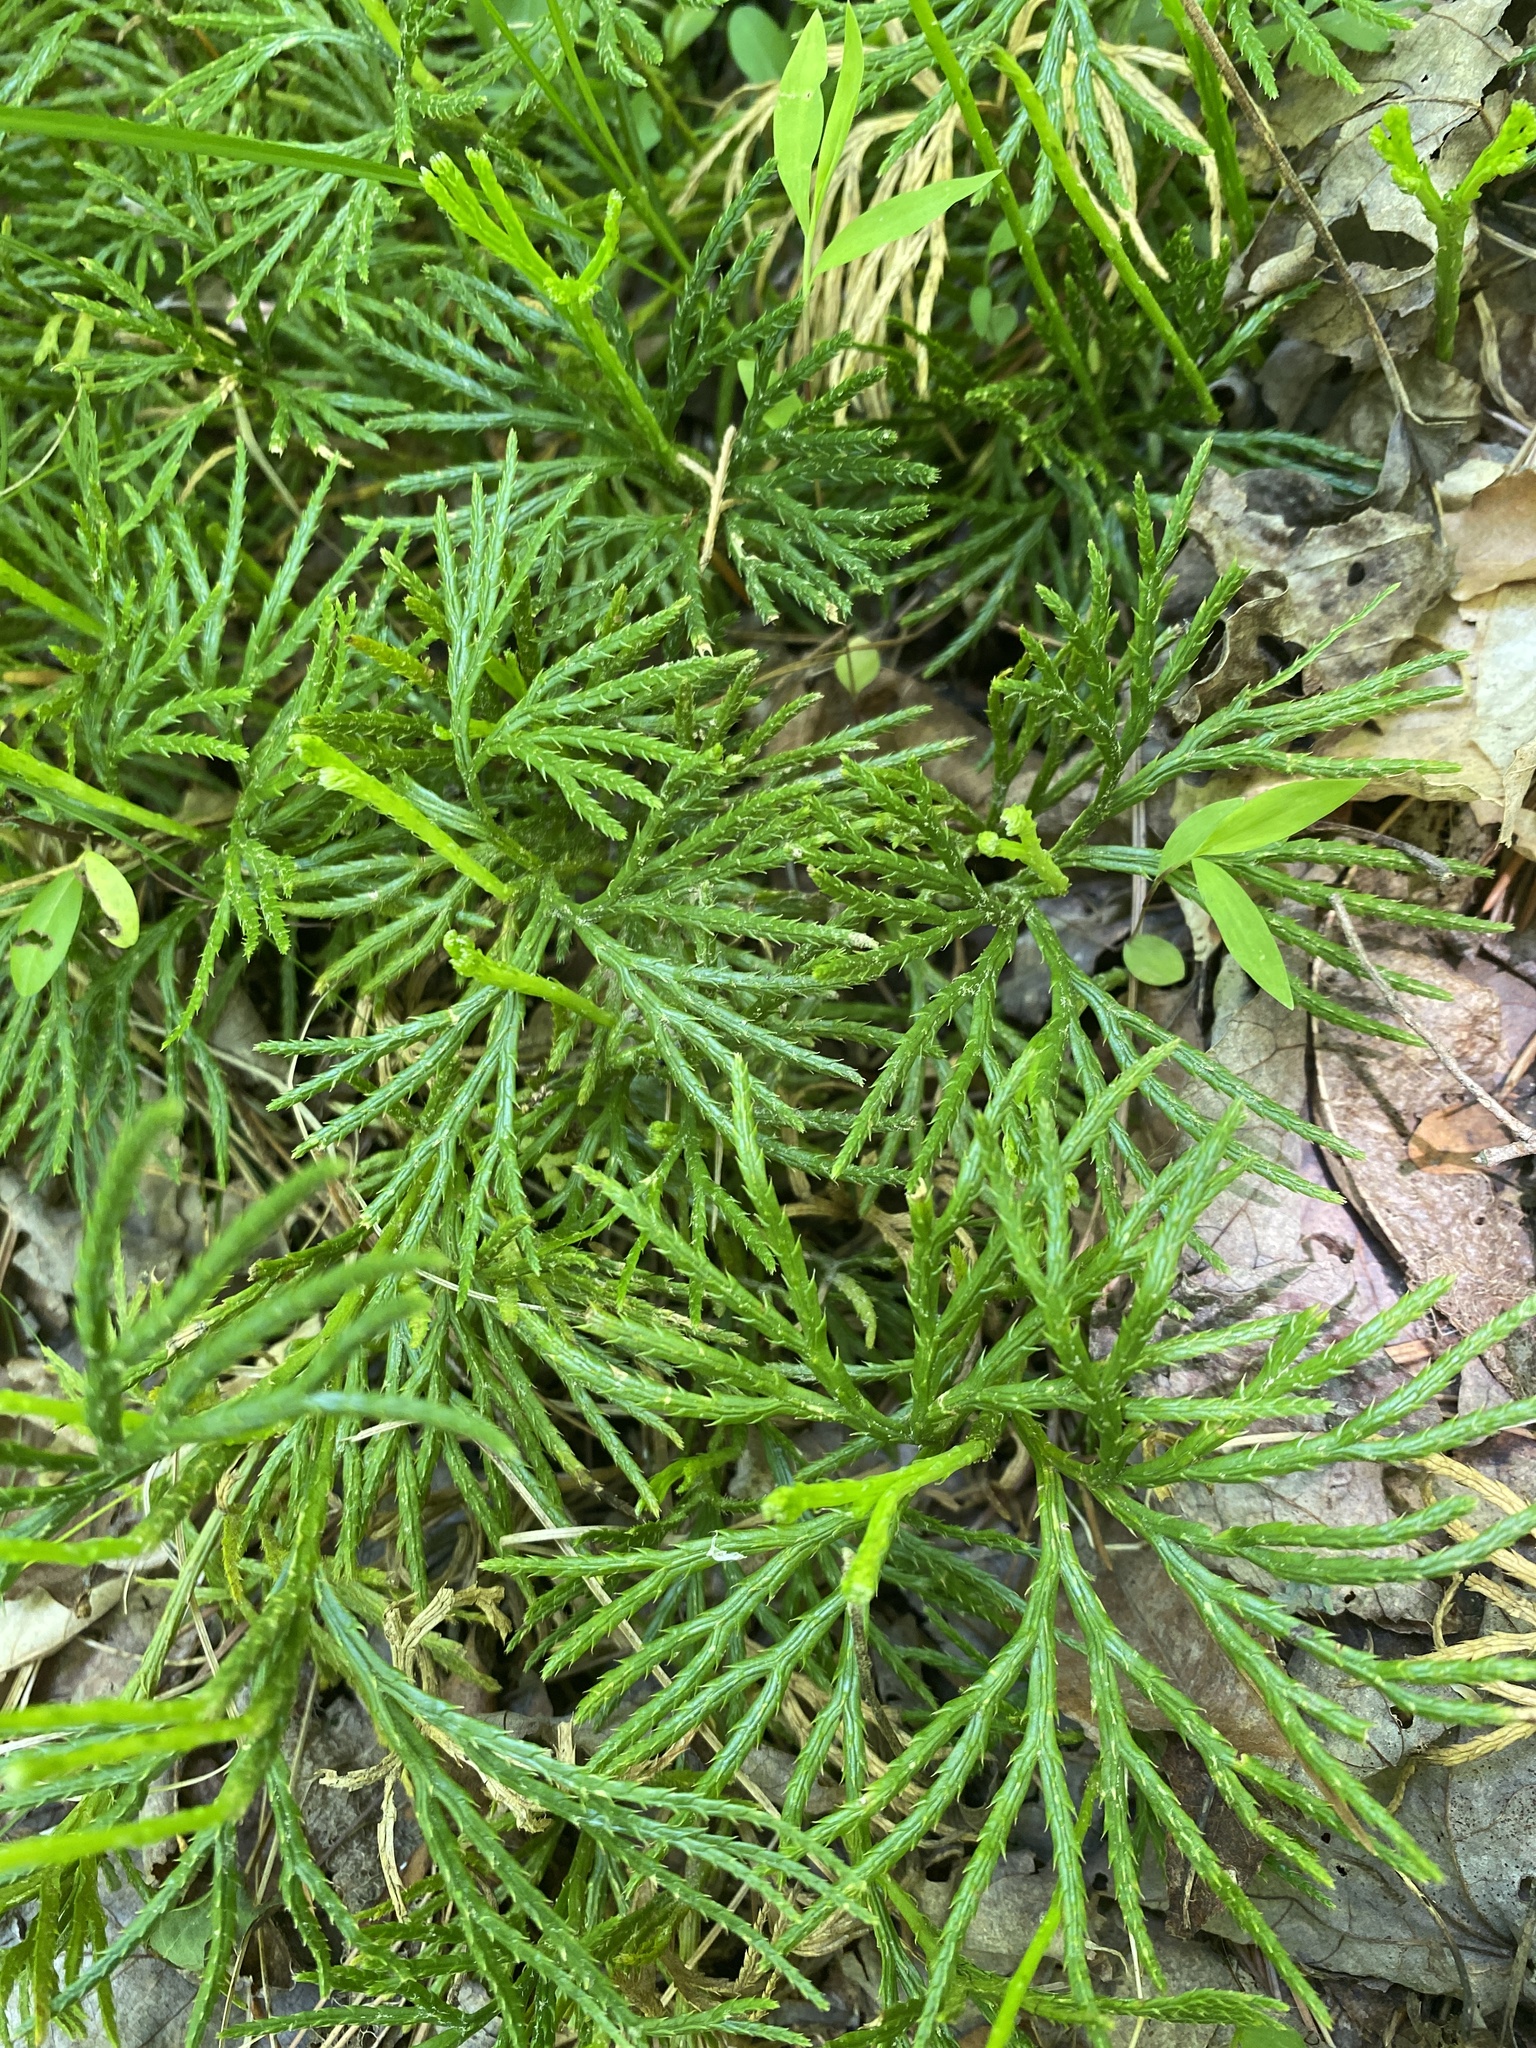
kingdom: Plantae
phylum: Tracheophyta
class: Lycopodiopsida
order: Lycopodiales
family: Lycopodiaceae
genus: Diphasiastrum
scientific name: Diphasiastrum digitatum
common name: Southern running-pine
